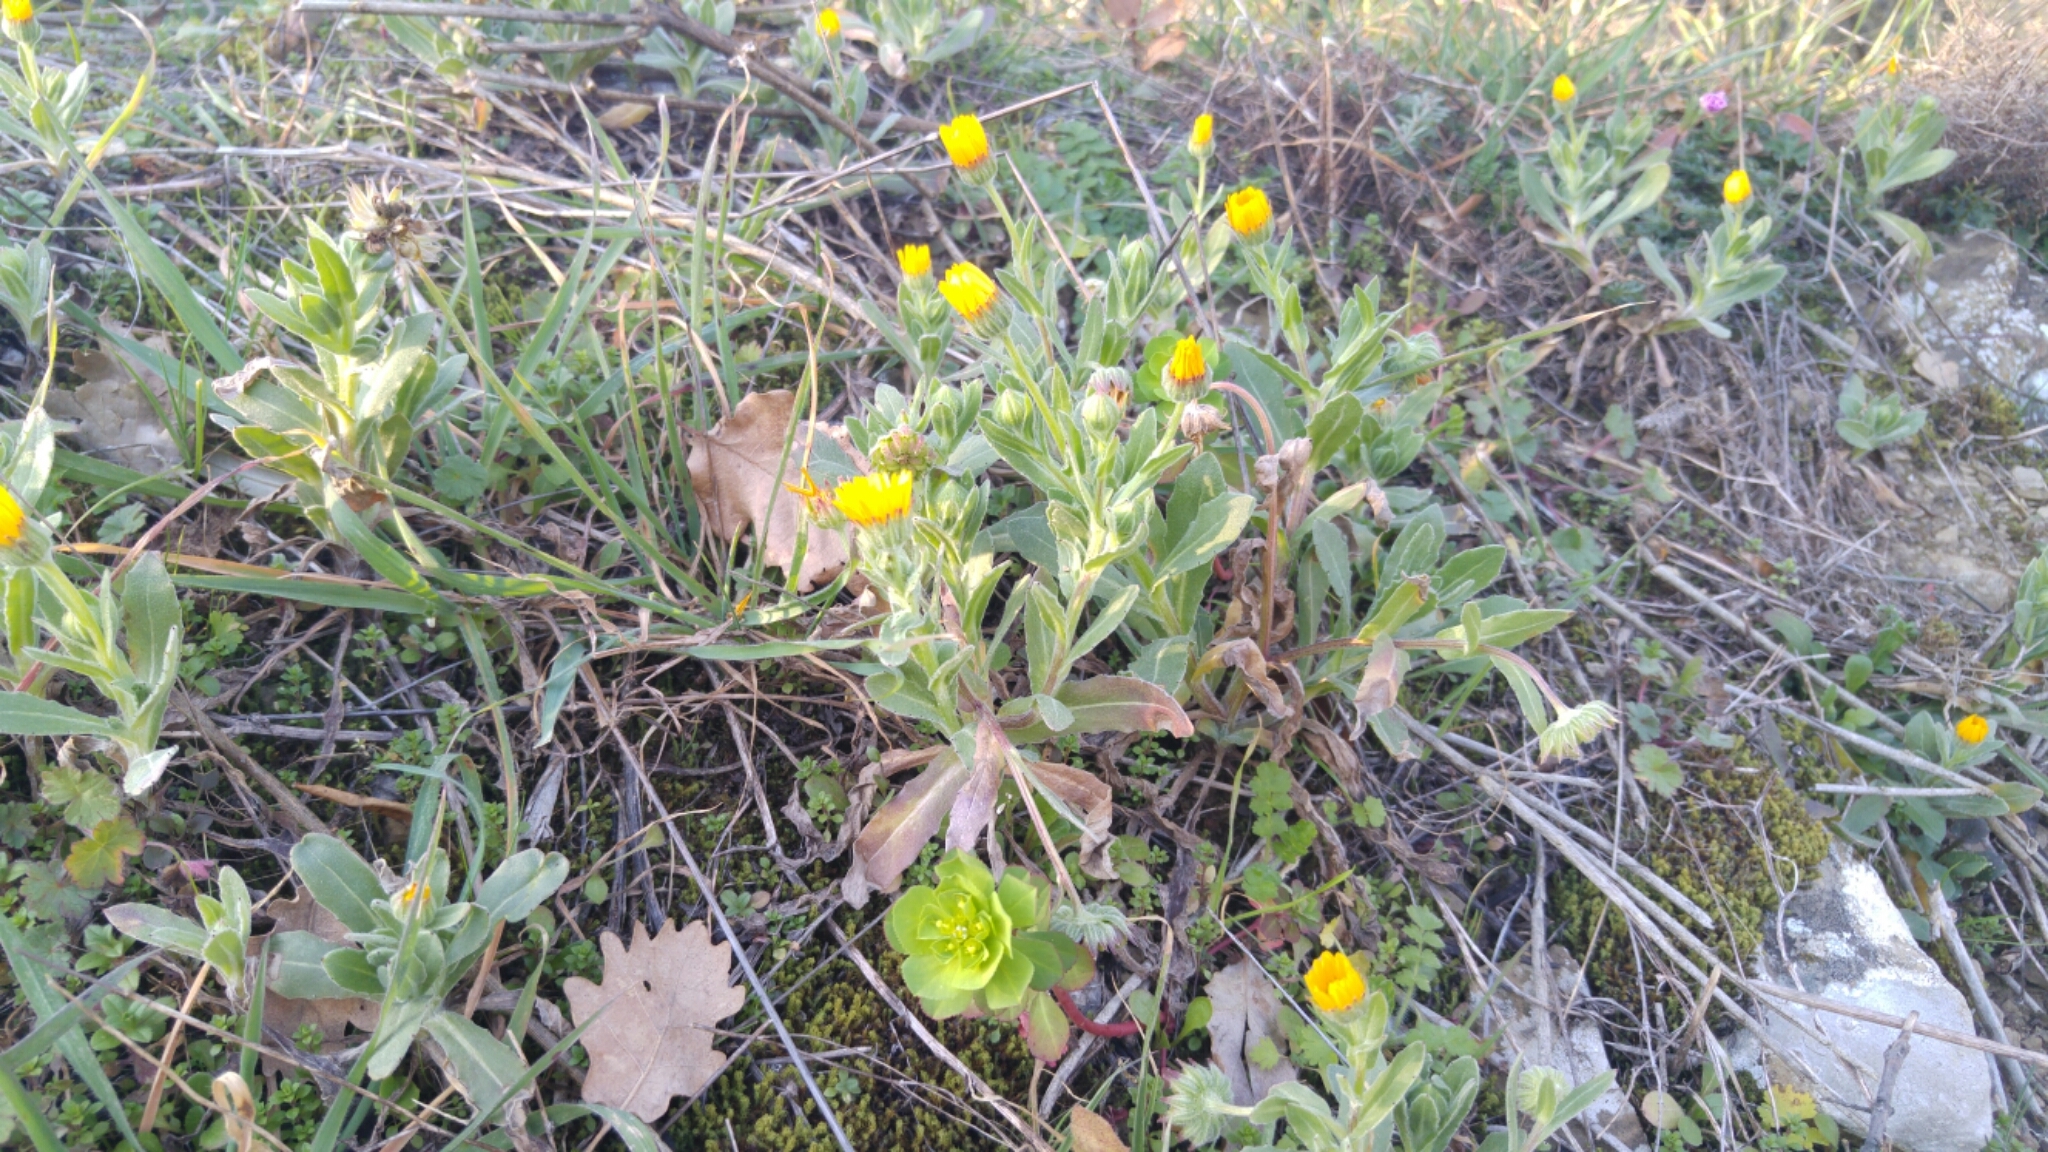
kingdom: Plantae
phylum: Tracheophyta
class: Magnoliopsida
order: Asterales
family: Asteraceae
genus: Calendula
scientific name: Calendula arvensis
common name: Field marigold
